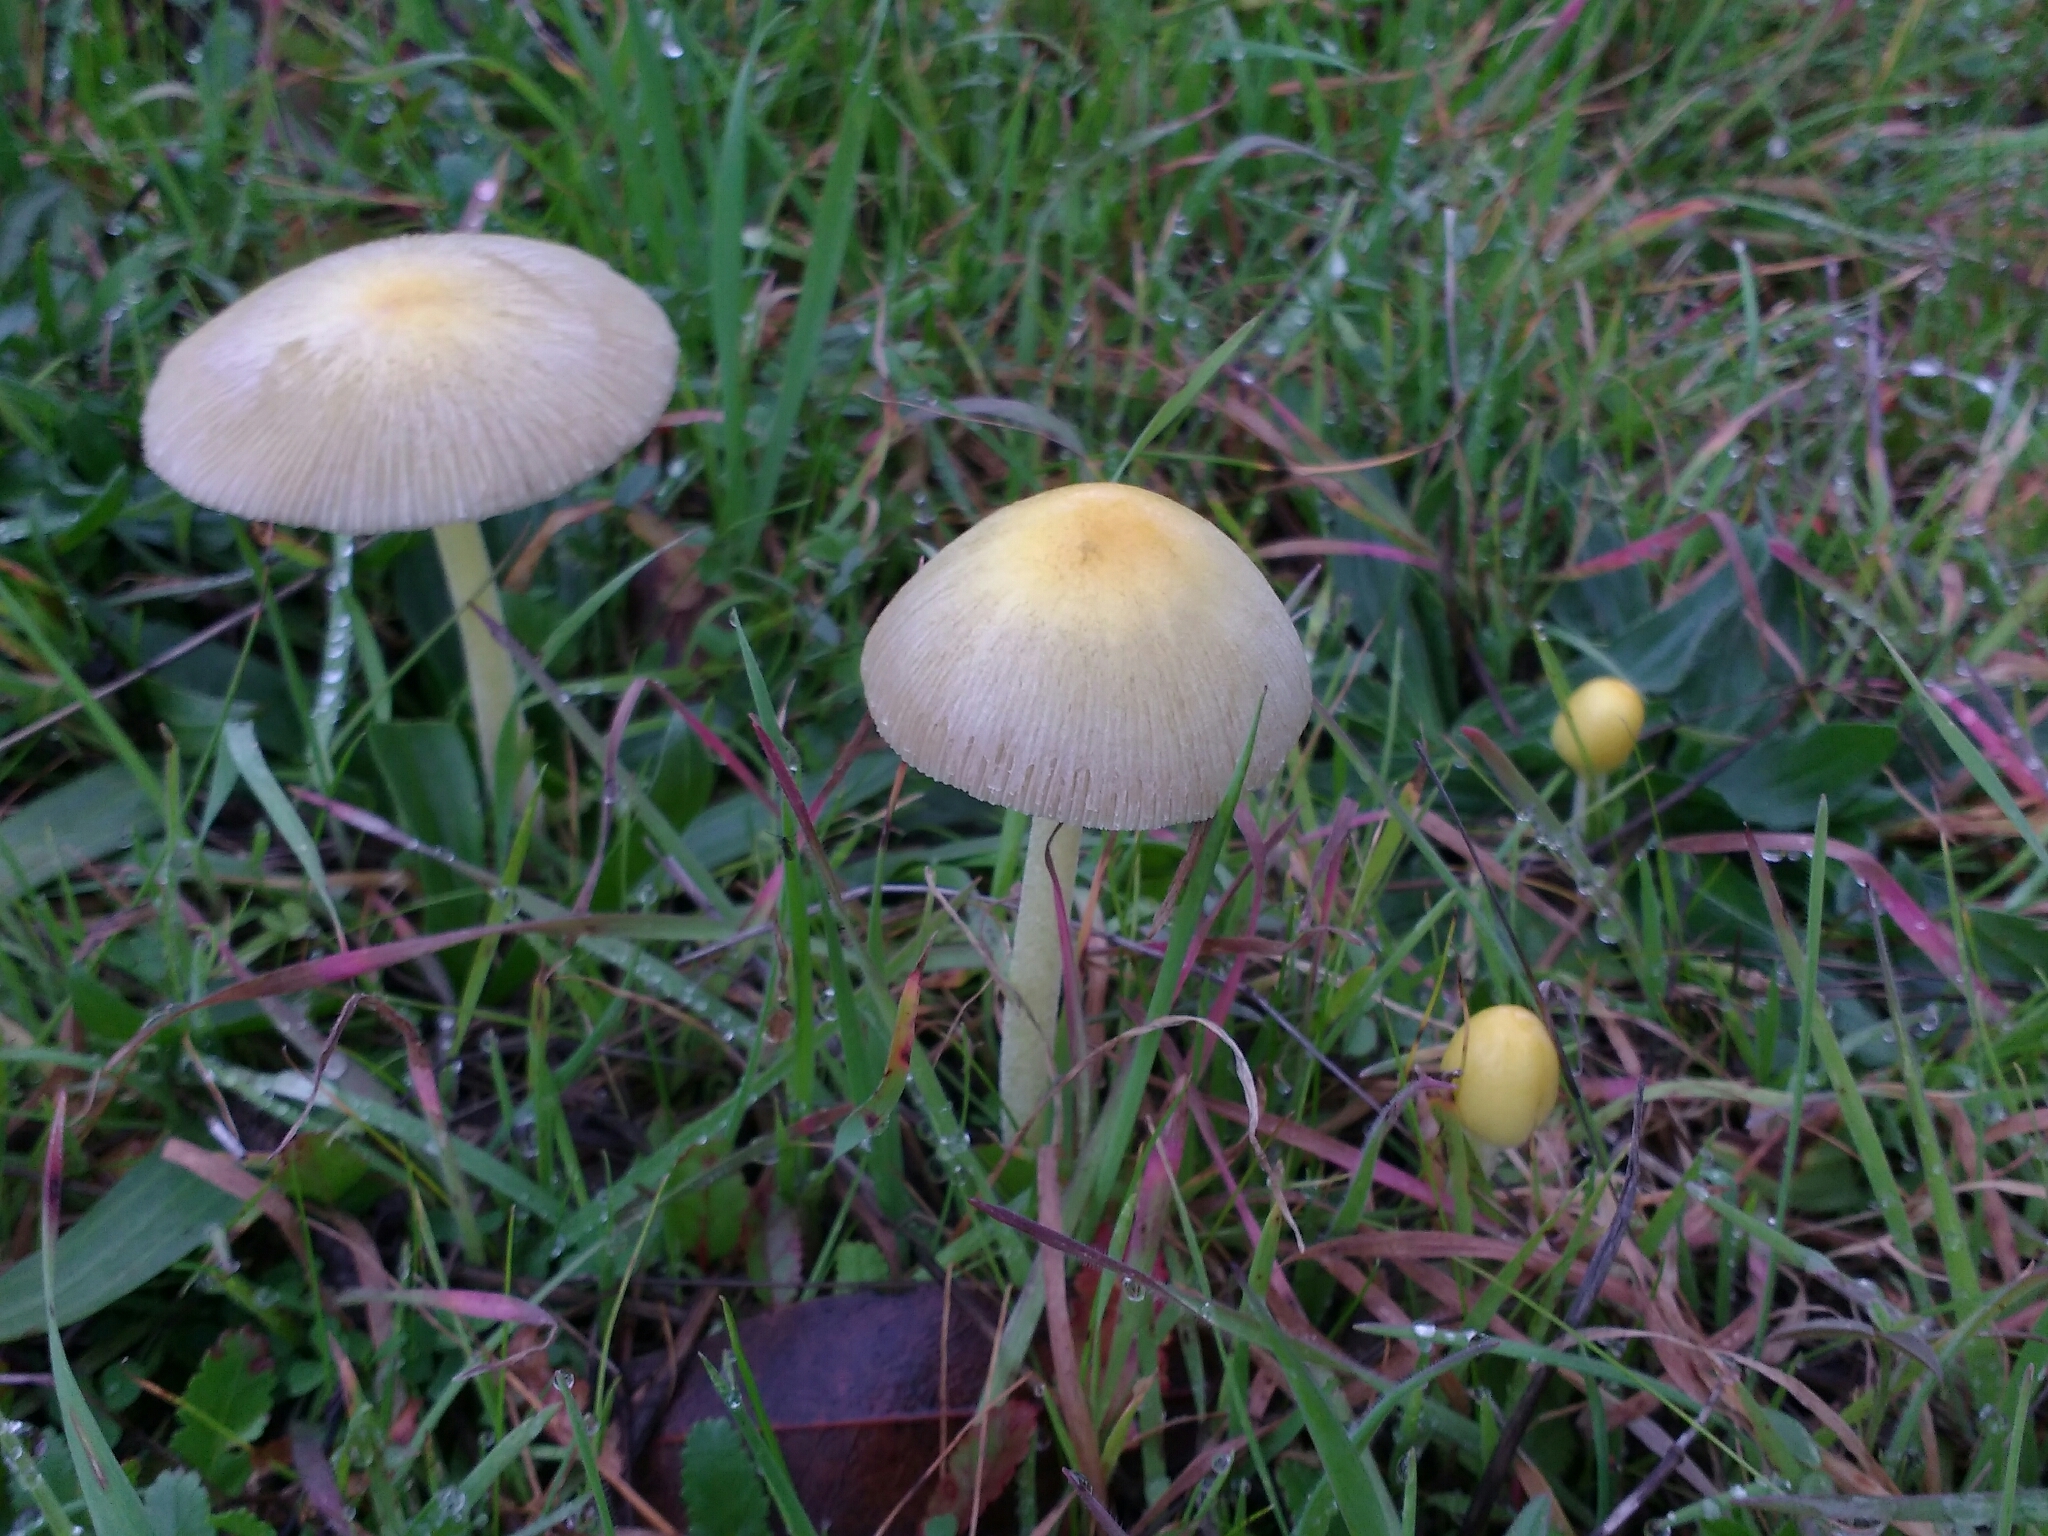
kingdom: Fungi
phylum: Basidiomycota
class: Agaricomycetes
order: Agaricales
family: Bolbitiaceae
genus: Bolbitius
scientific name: Bolbitius titubans
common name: Yellow fieldcap
